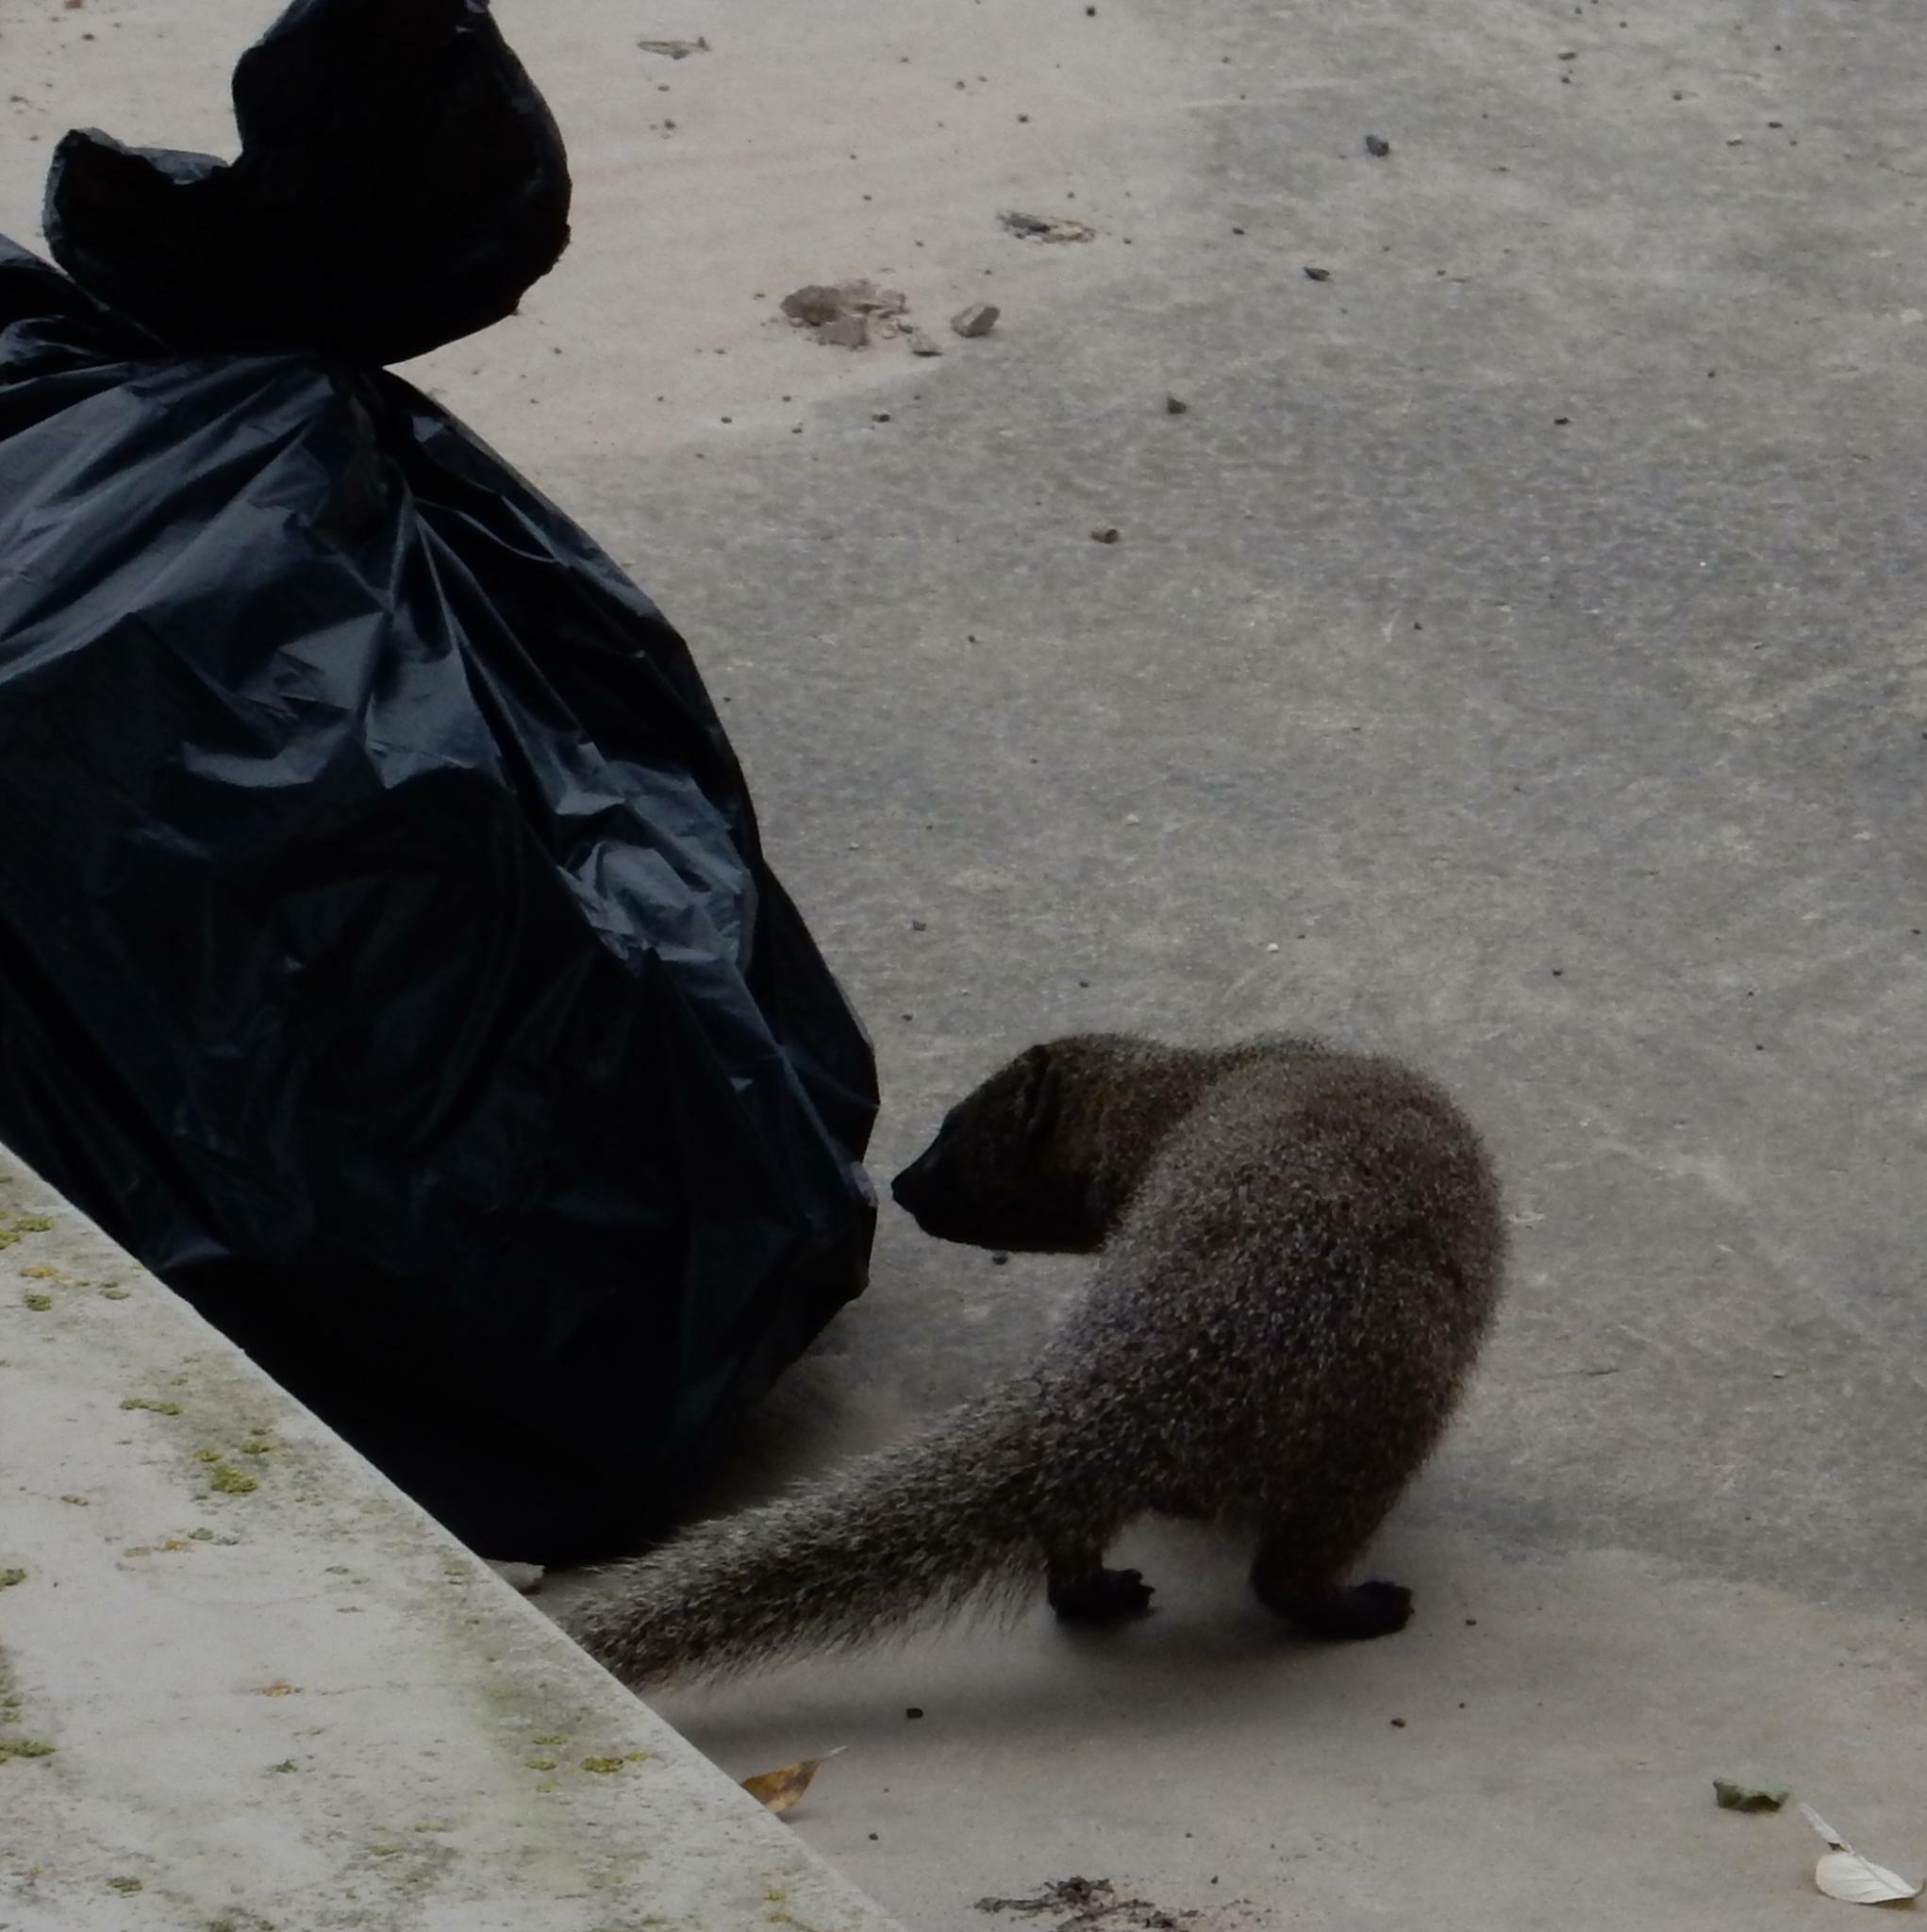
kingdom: Animalia
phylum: Chordata
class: Mammalia
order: Carnivora
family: Herpestidae
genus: Galerella
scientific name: Galerella pulverulenta
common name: Cape gray mongoose
